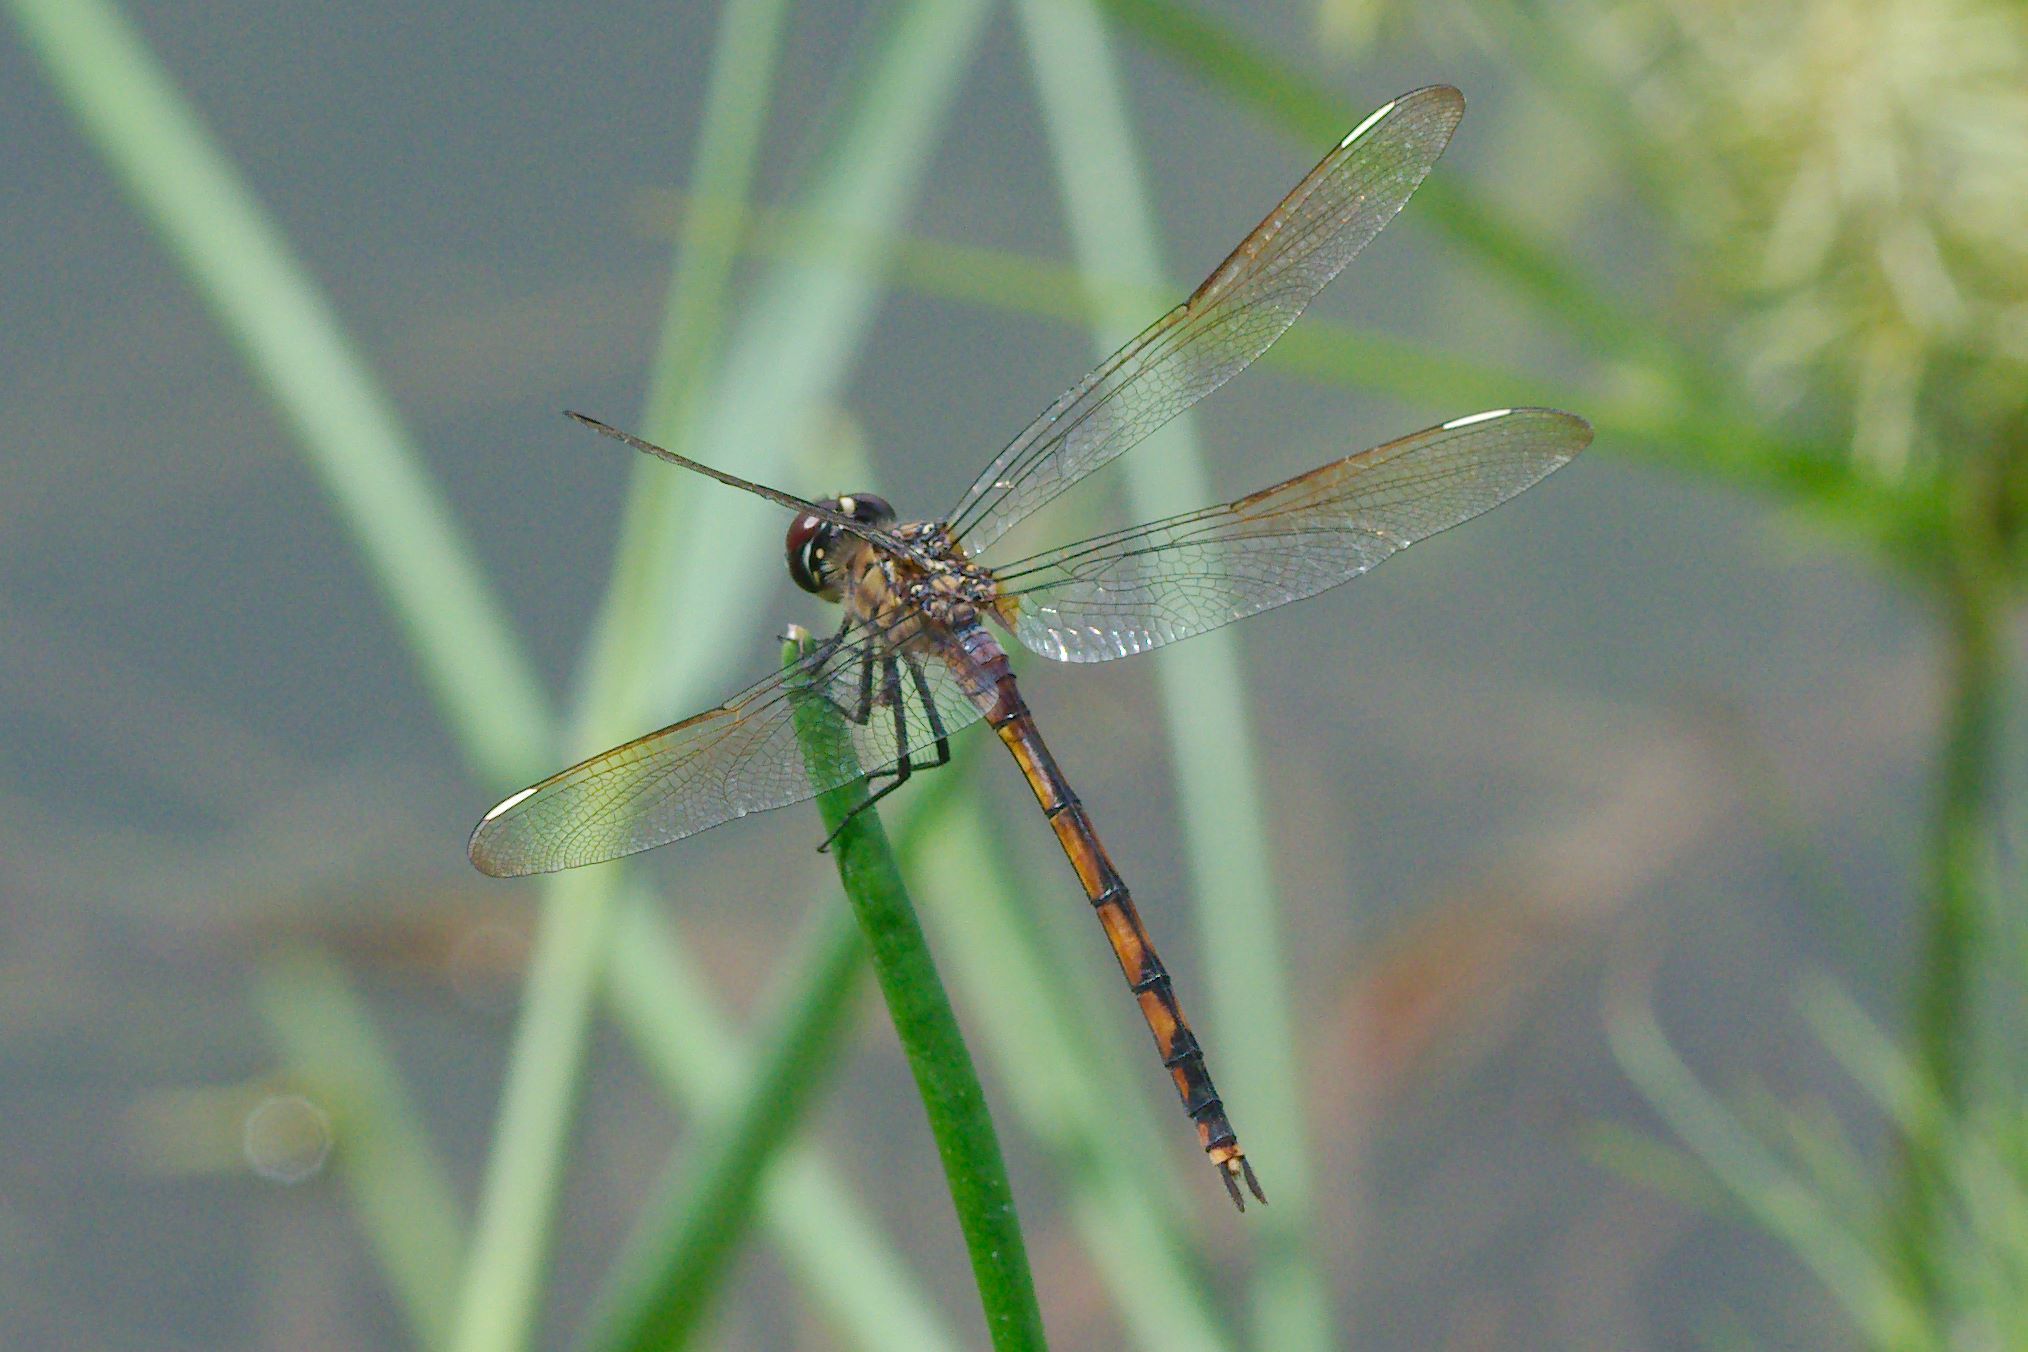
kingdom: Animalia
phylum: Arthropoda
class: Insecta
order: Odonata
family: Libellulidae
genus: Brachymesia
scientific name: Brachymesia gravida
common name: Four-spotted pennant
